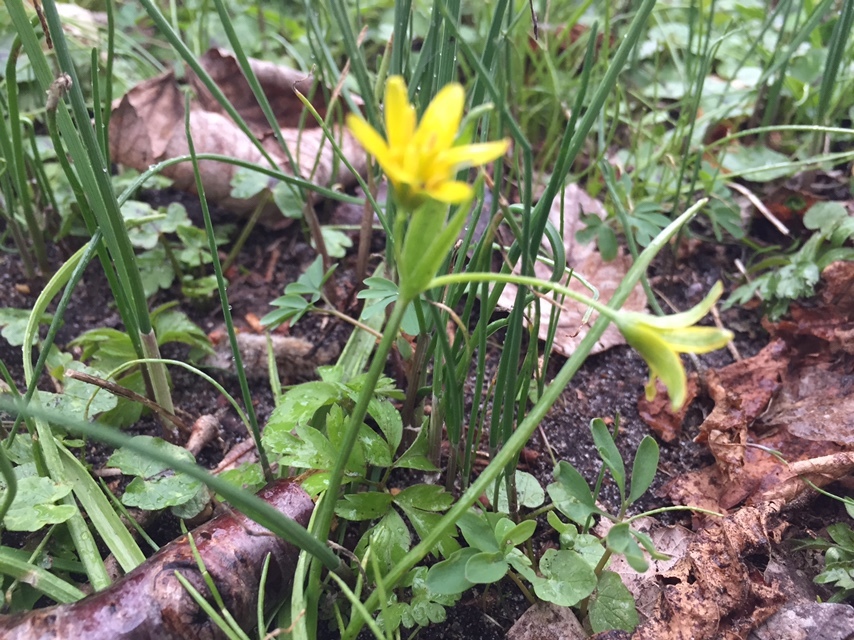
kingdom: Plantae
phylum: Tracheophyta
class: Liliopsida
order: Liliales
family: Liliaceae
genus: Gagea
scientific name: Gagea spathacea
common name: Belgian gagea
